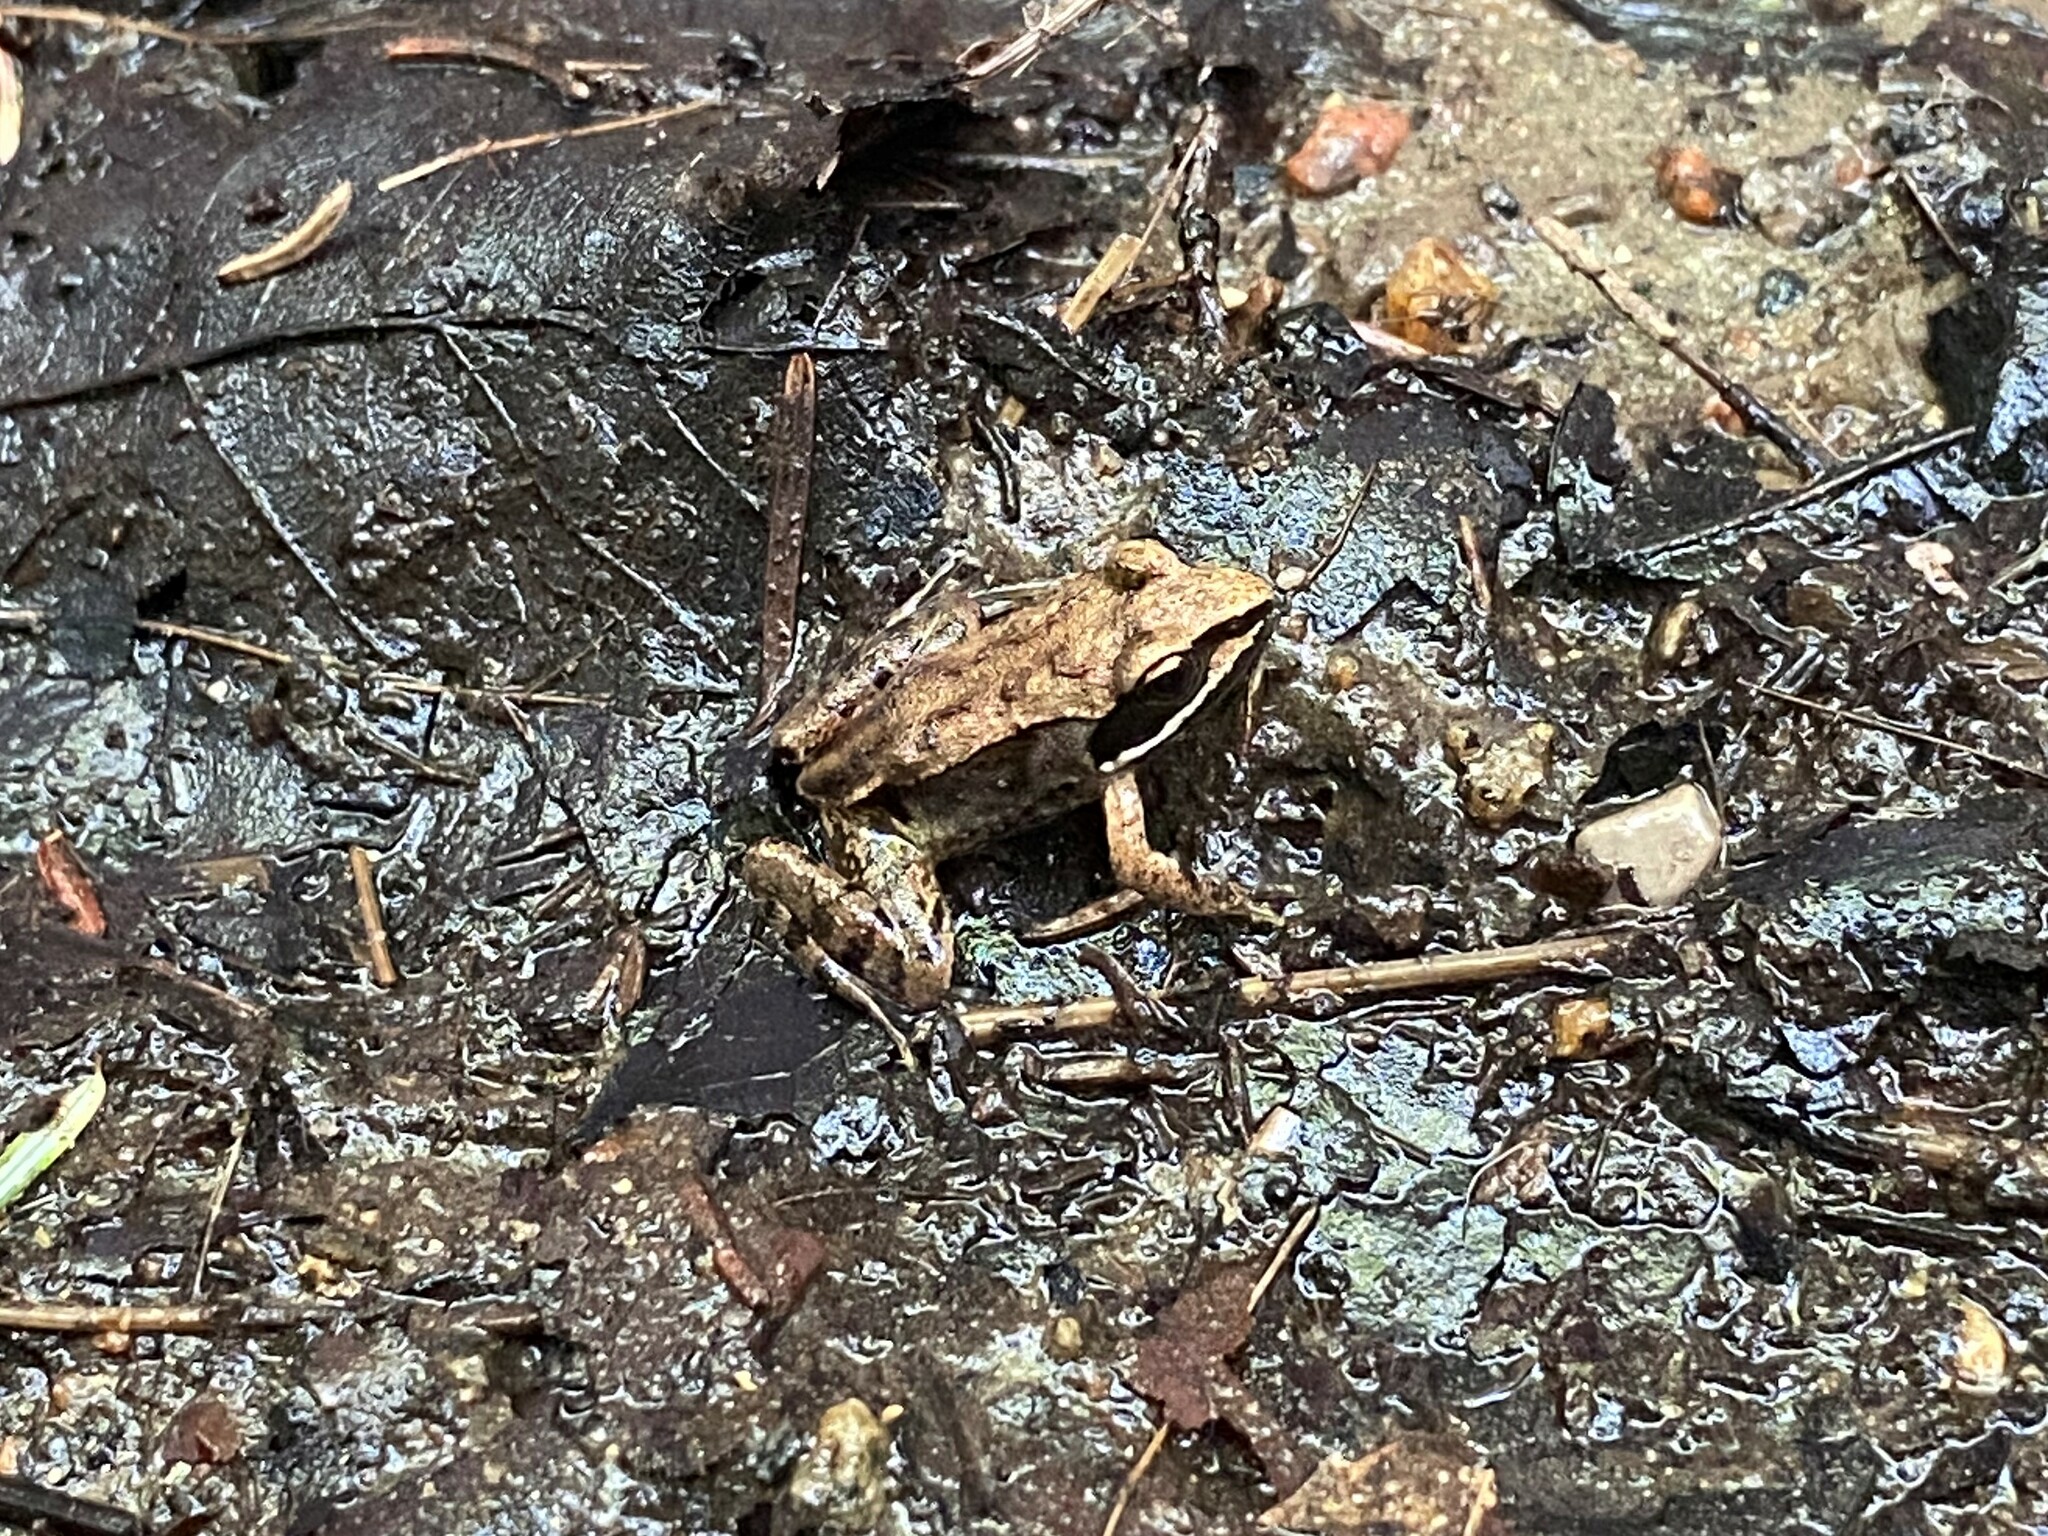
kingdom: Animalia
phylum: Chordata
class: Amphibia
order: Anura
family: Ranidae
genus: Lithobates
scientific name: Lithobates sylvaticus
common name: Wood frog
